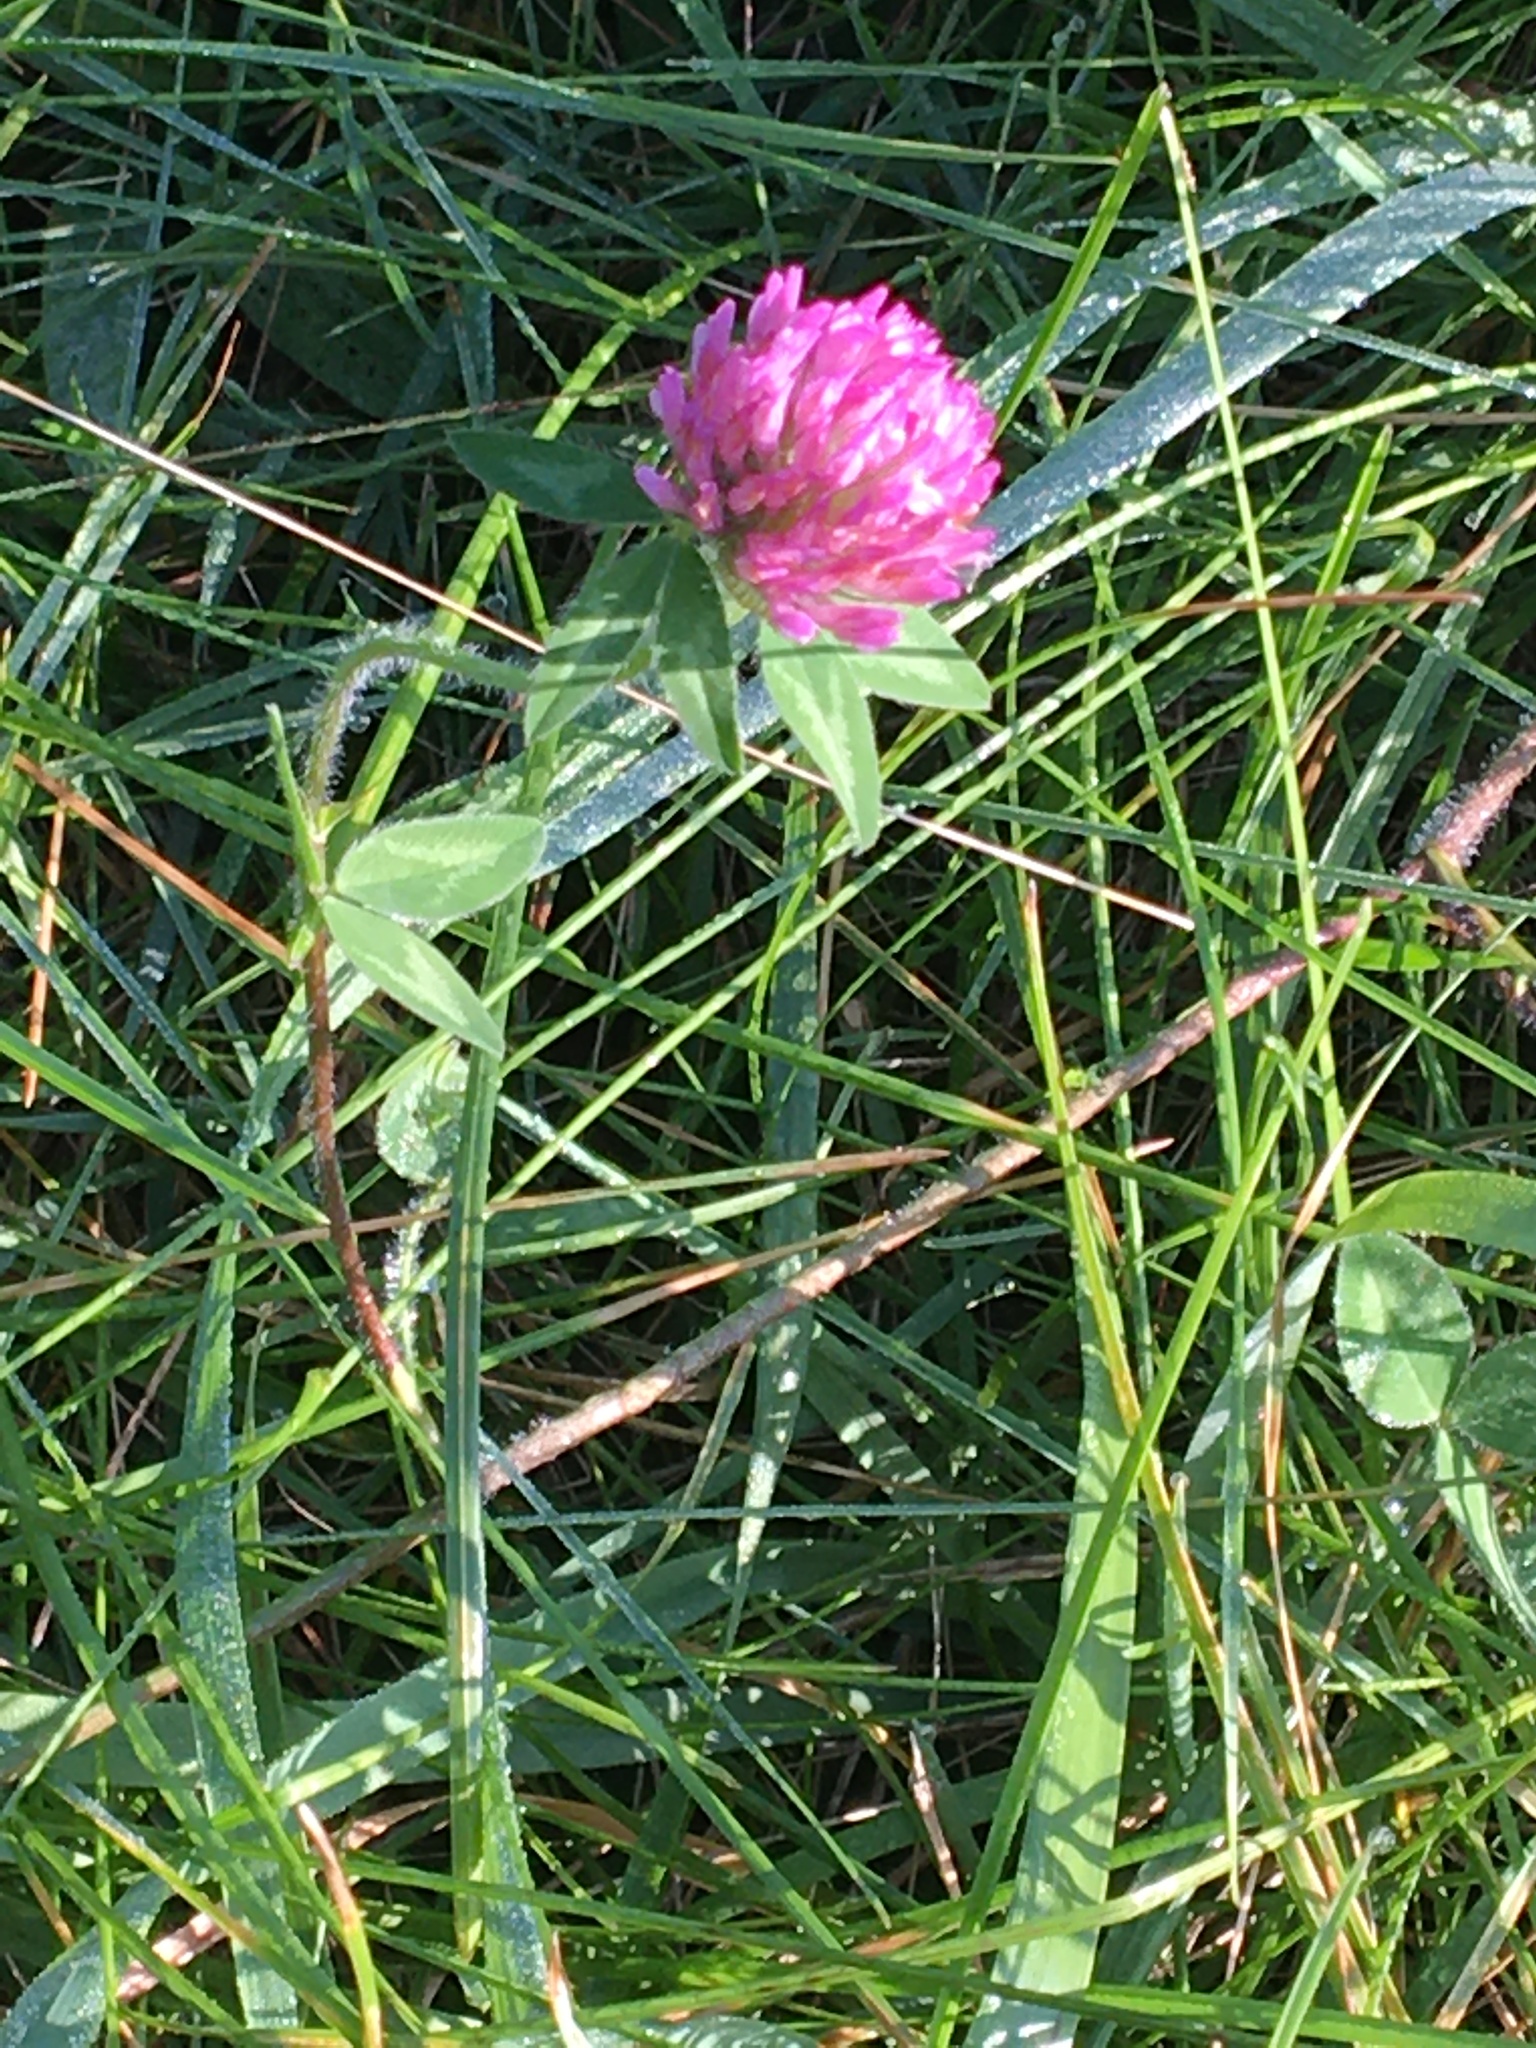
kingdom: Plantae
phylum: Tracheophyta
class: Magnoliopsida
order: Fabales
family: Fabaceae
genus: Trifolium
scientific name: Trifolium pratense
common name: Red clover
